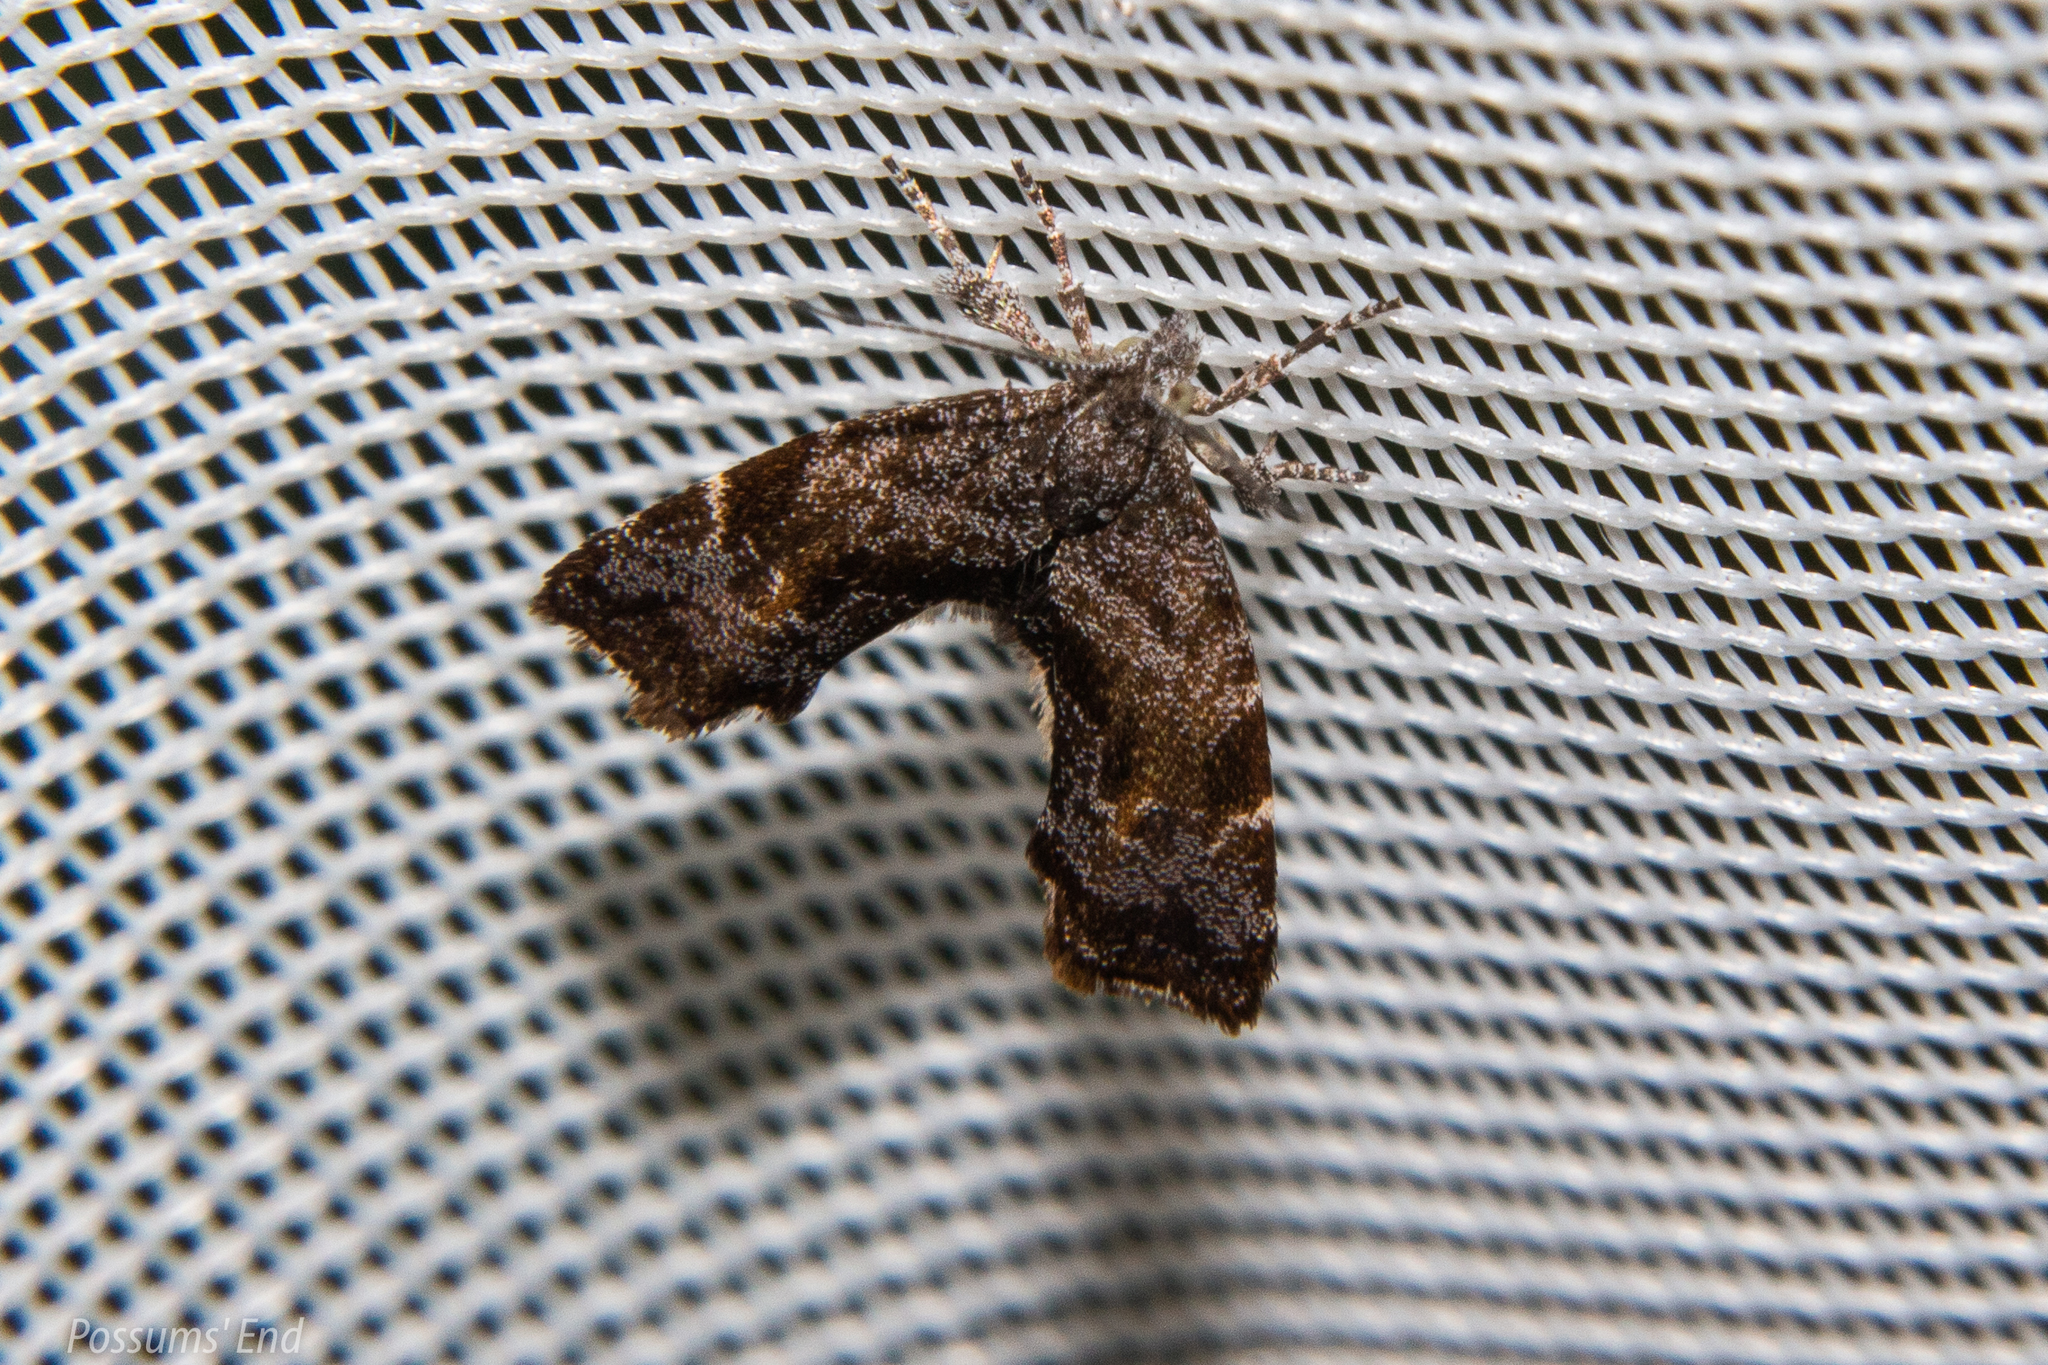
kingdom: Animalia
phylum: Arthropoda
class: Insecta
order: Lepidoptera
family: Choreutidae
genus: Asterivora
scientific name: Asterivora combinatana
